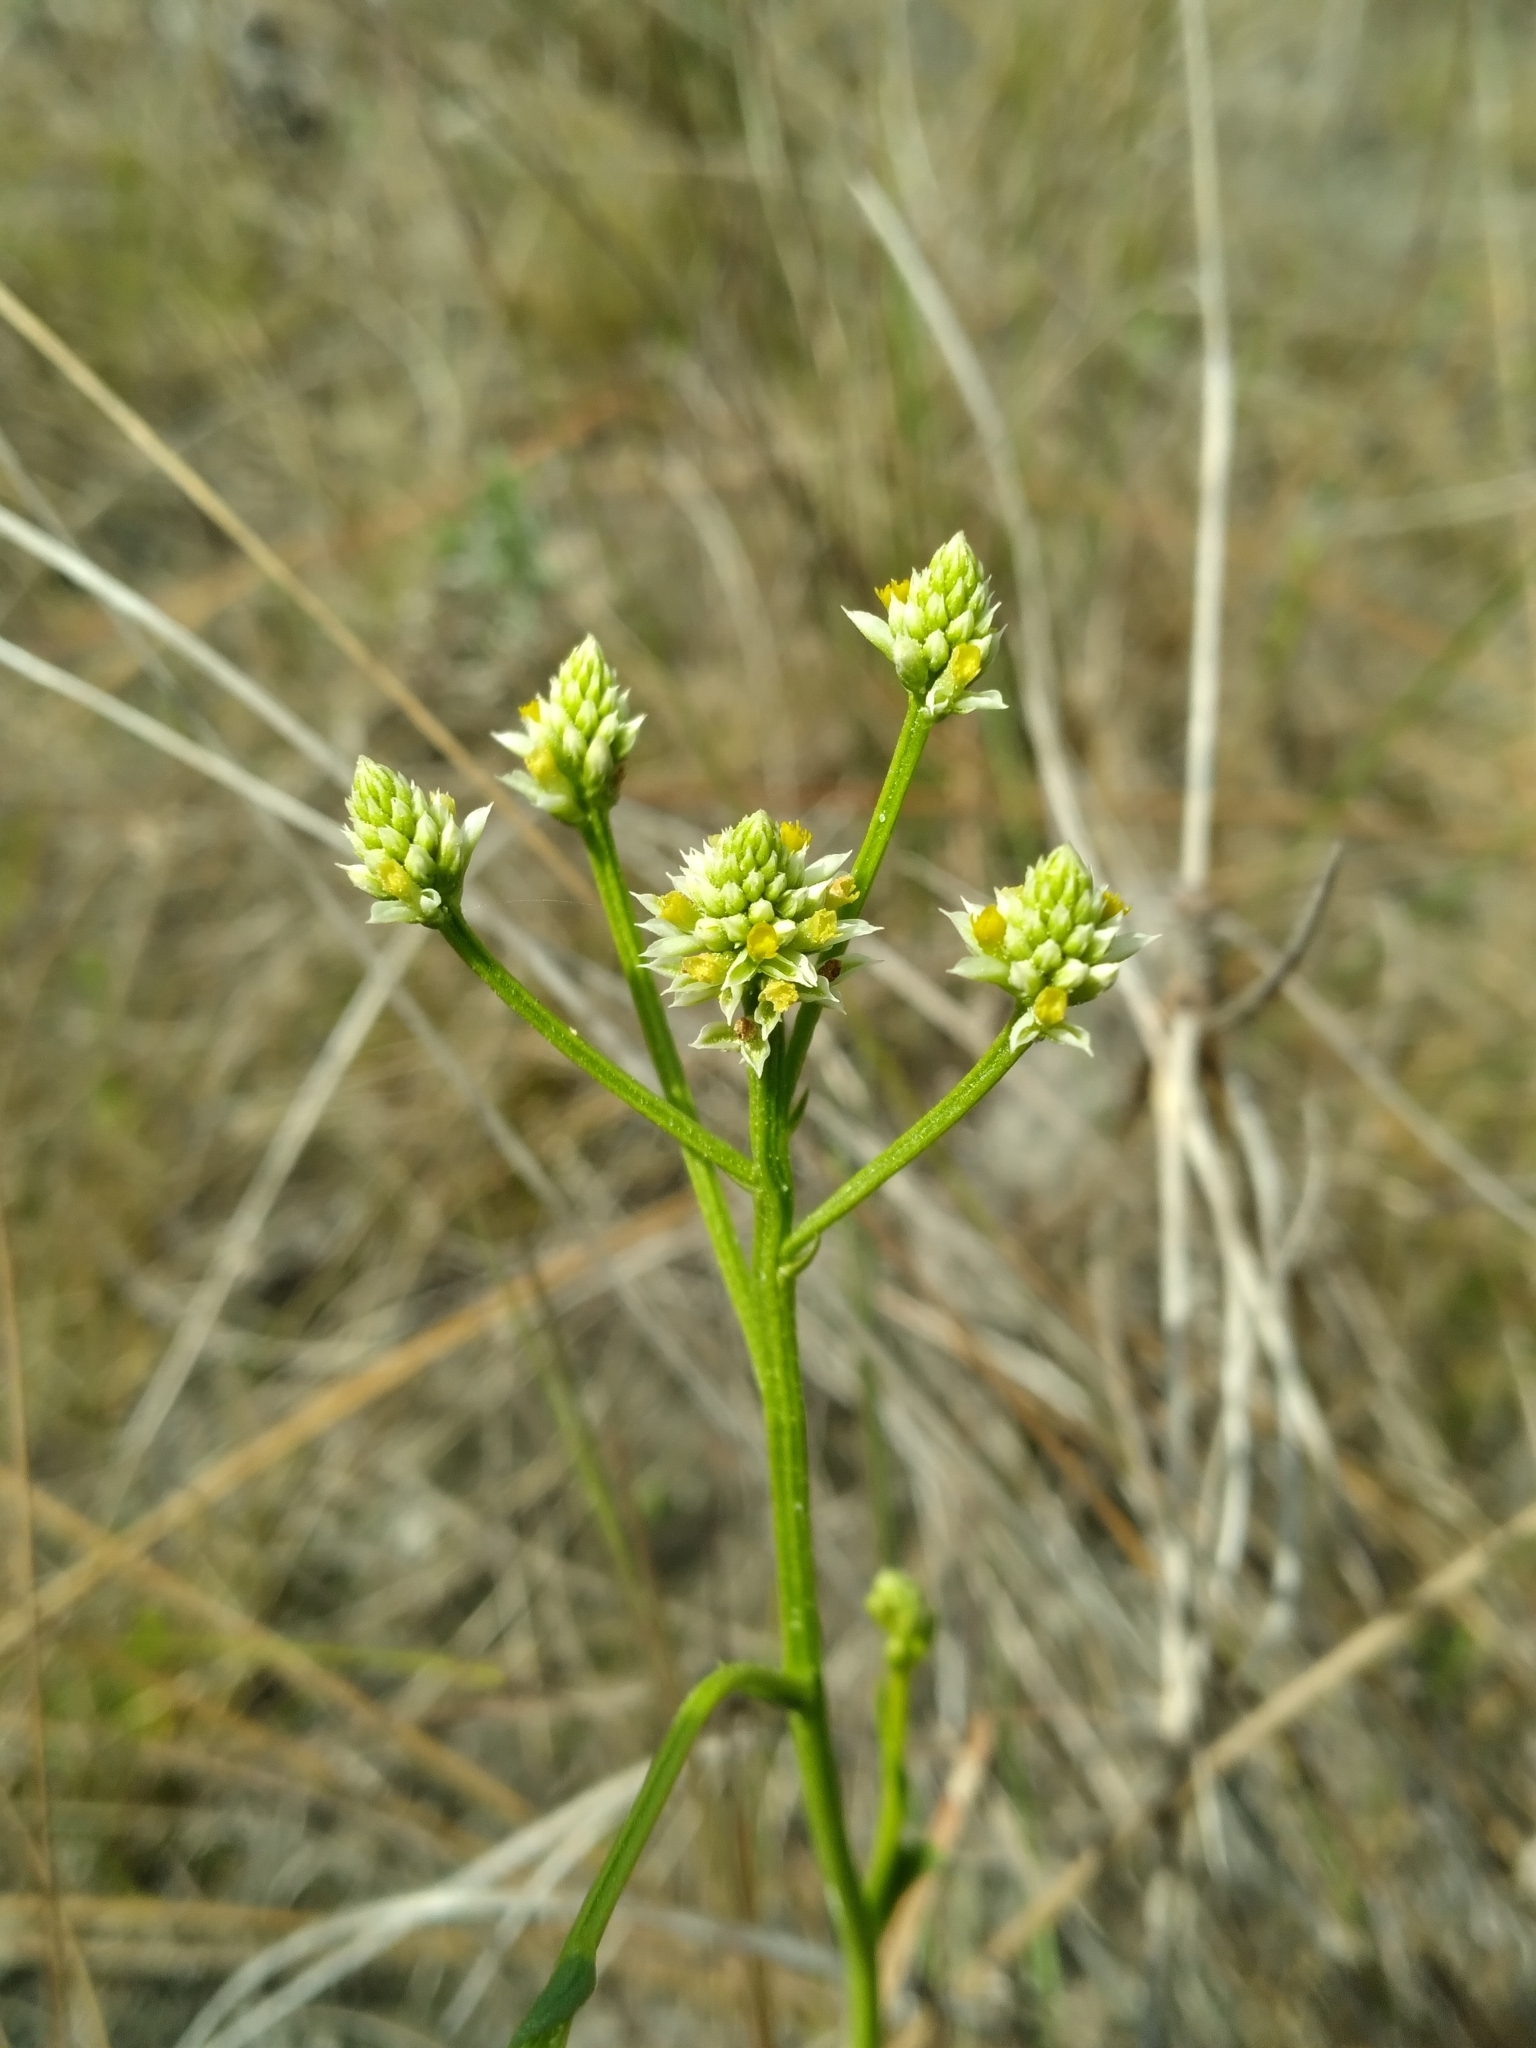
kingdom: Plantae
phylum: Tracheophyta
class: Magnoliopsida
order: Fabales
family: Polygalaceae
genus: Polygala
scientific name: Polygala baldwinii
